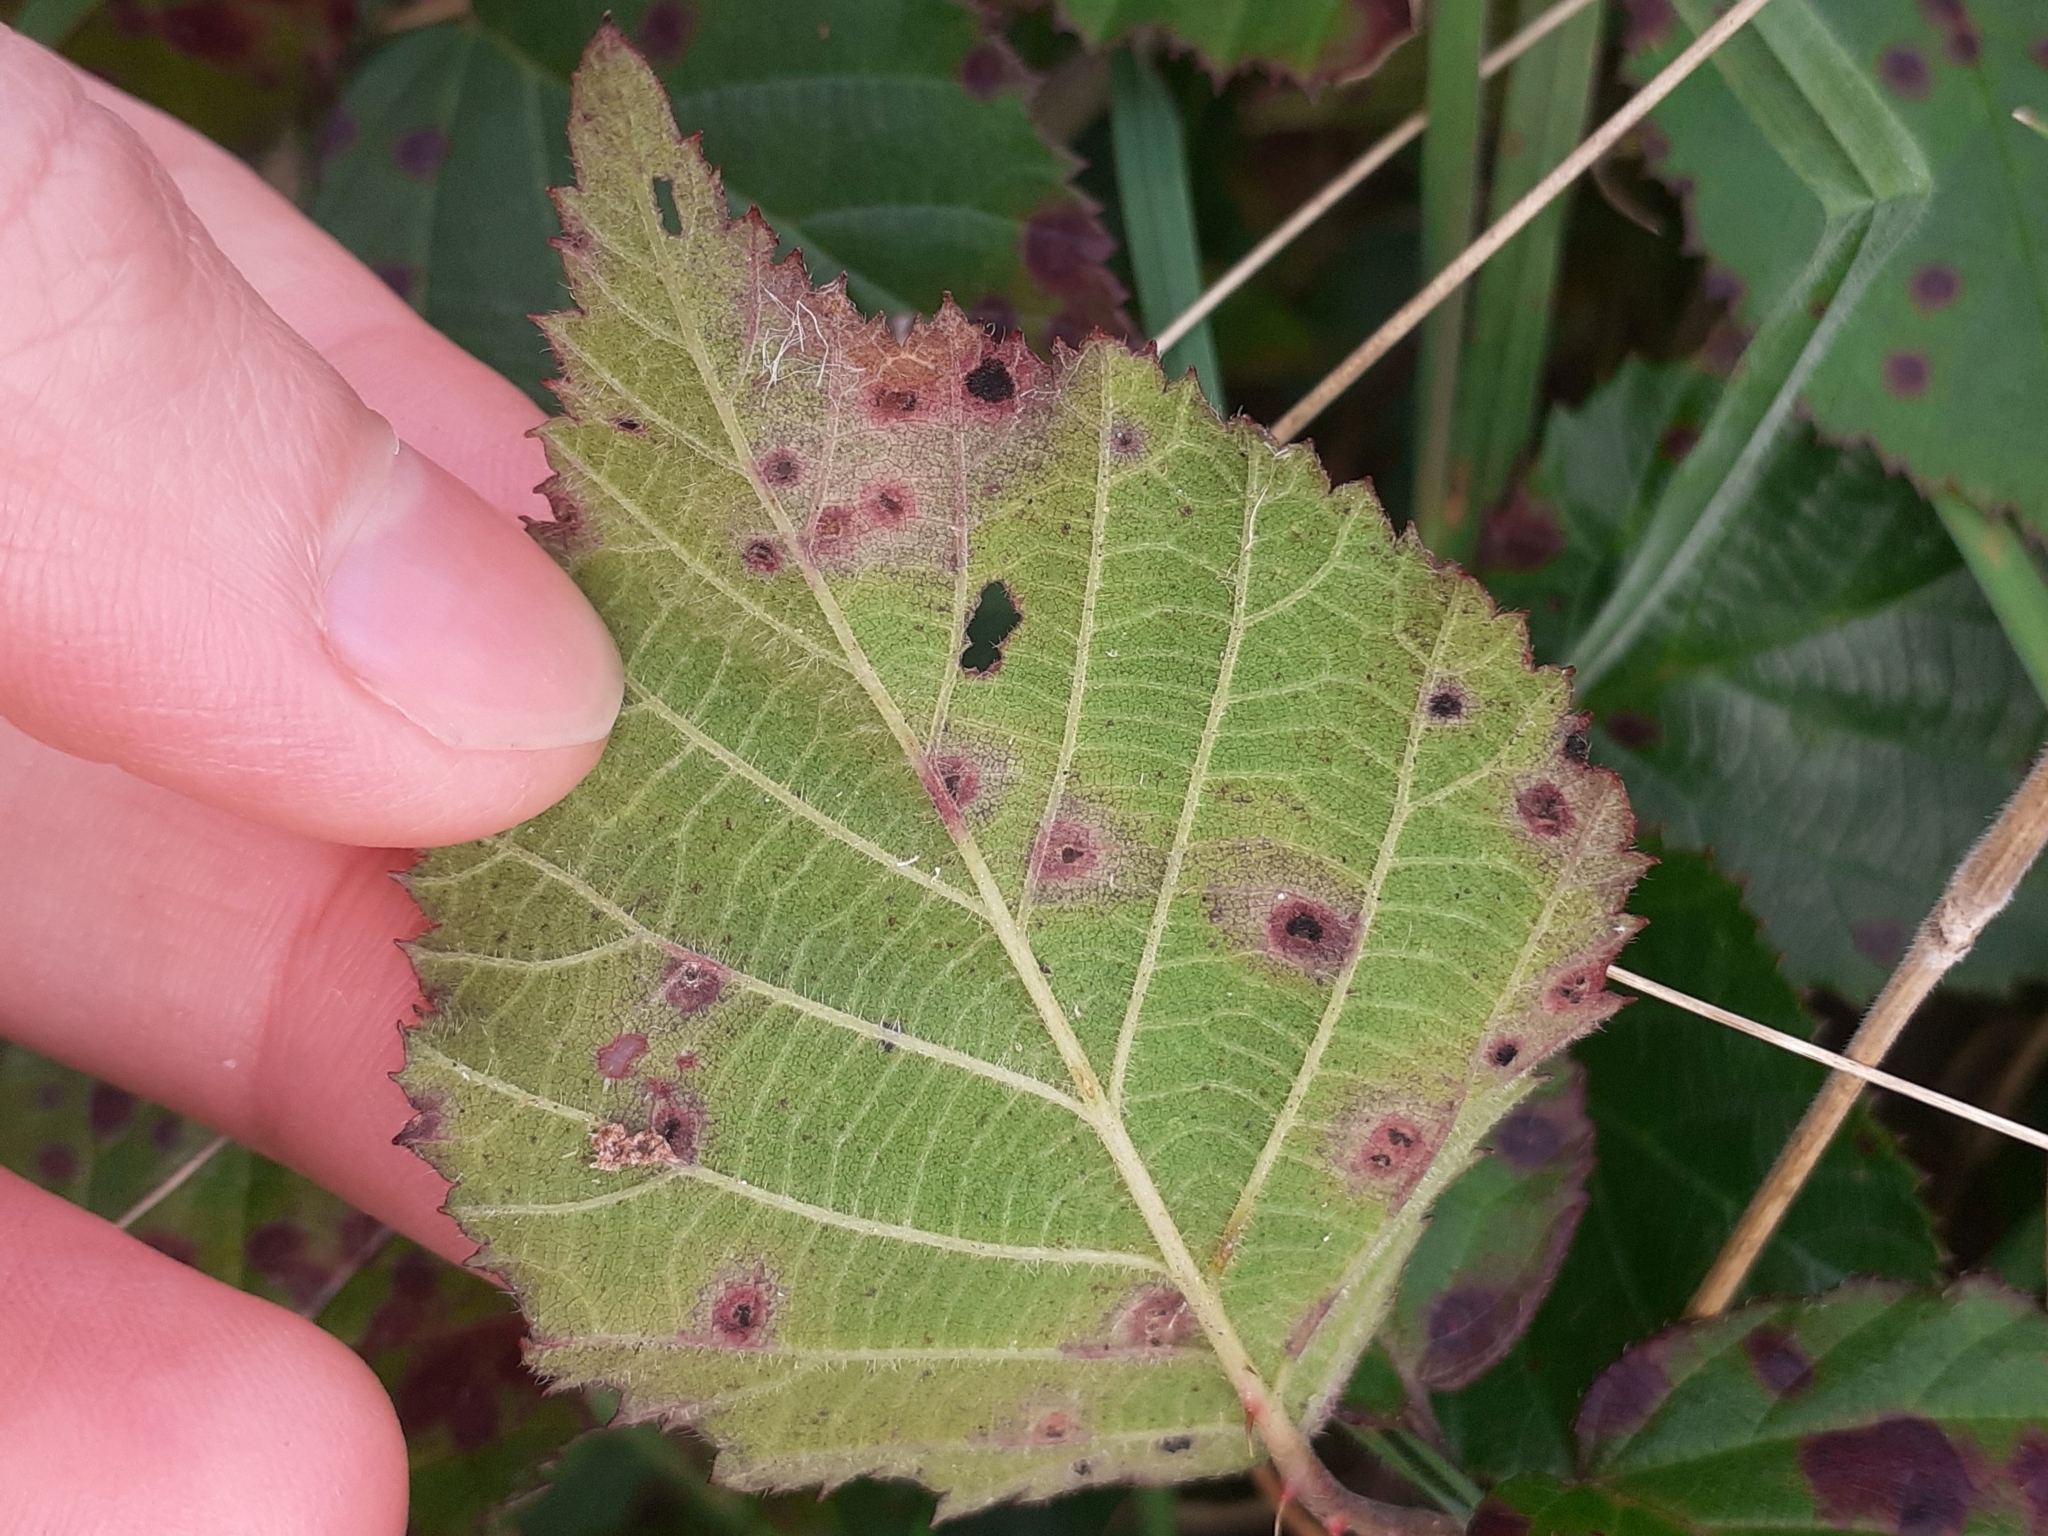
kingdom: Fungi
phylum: Basidiomycota
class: Pucciniomycetes
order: Pucciniales
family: Phragmidiaceae
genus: Phragmidium
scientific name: Phragmidium violaceum
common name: Violet bramble rust
